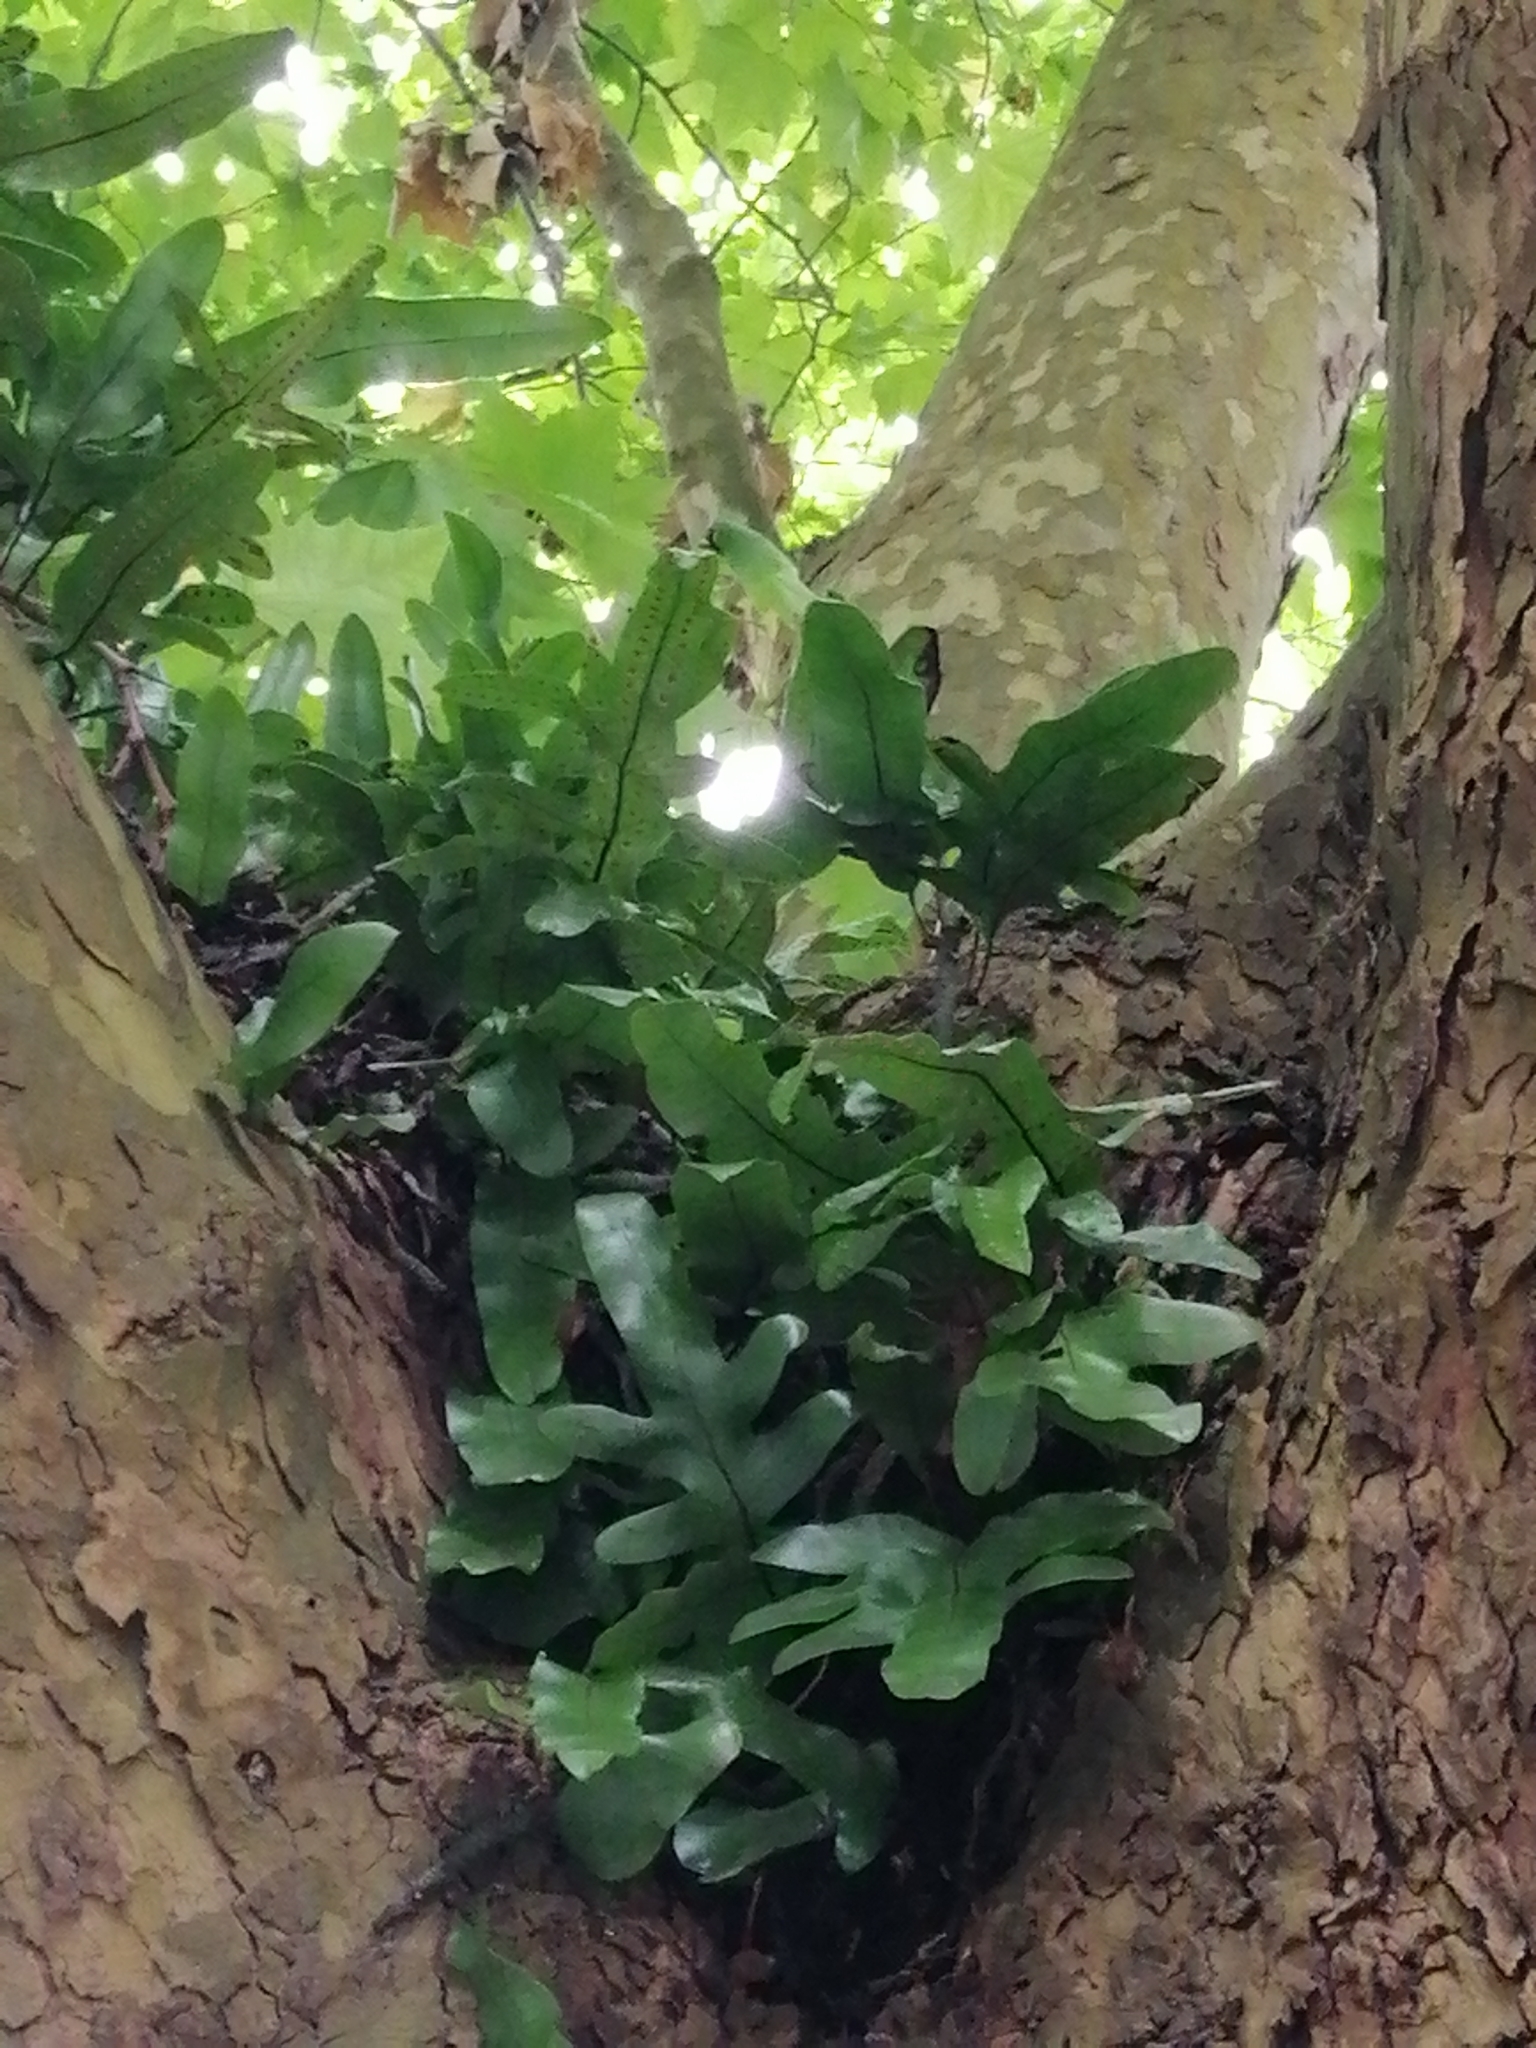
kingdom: Plantae
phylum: Tracheophyta
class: Polypodiopsida
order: Polypodiales
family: Polypodiaceae
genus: Lecanopteris
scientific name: Lecanopteris pustulata
